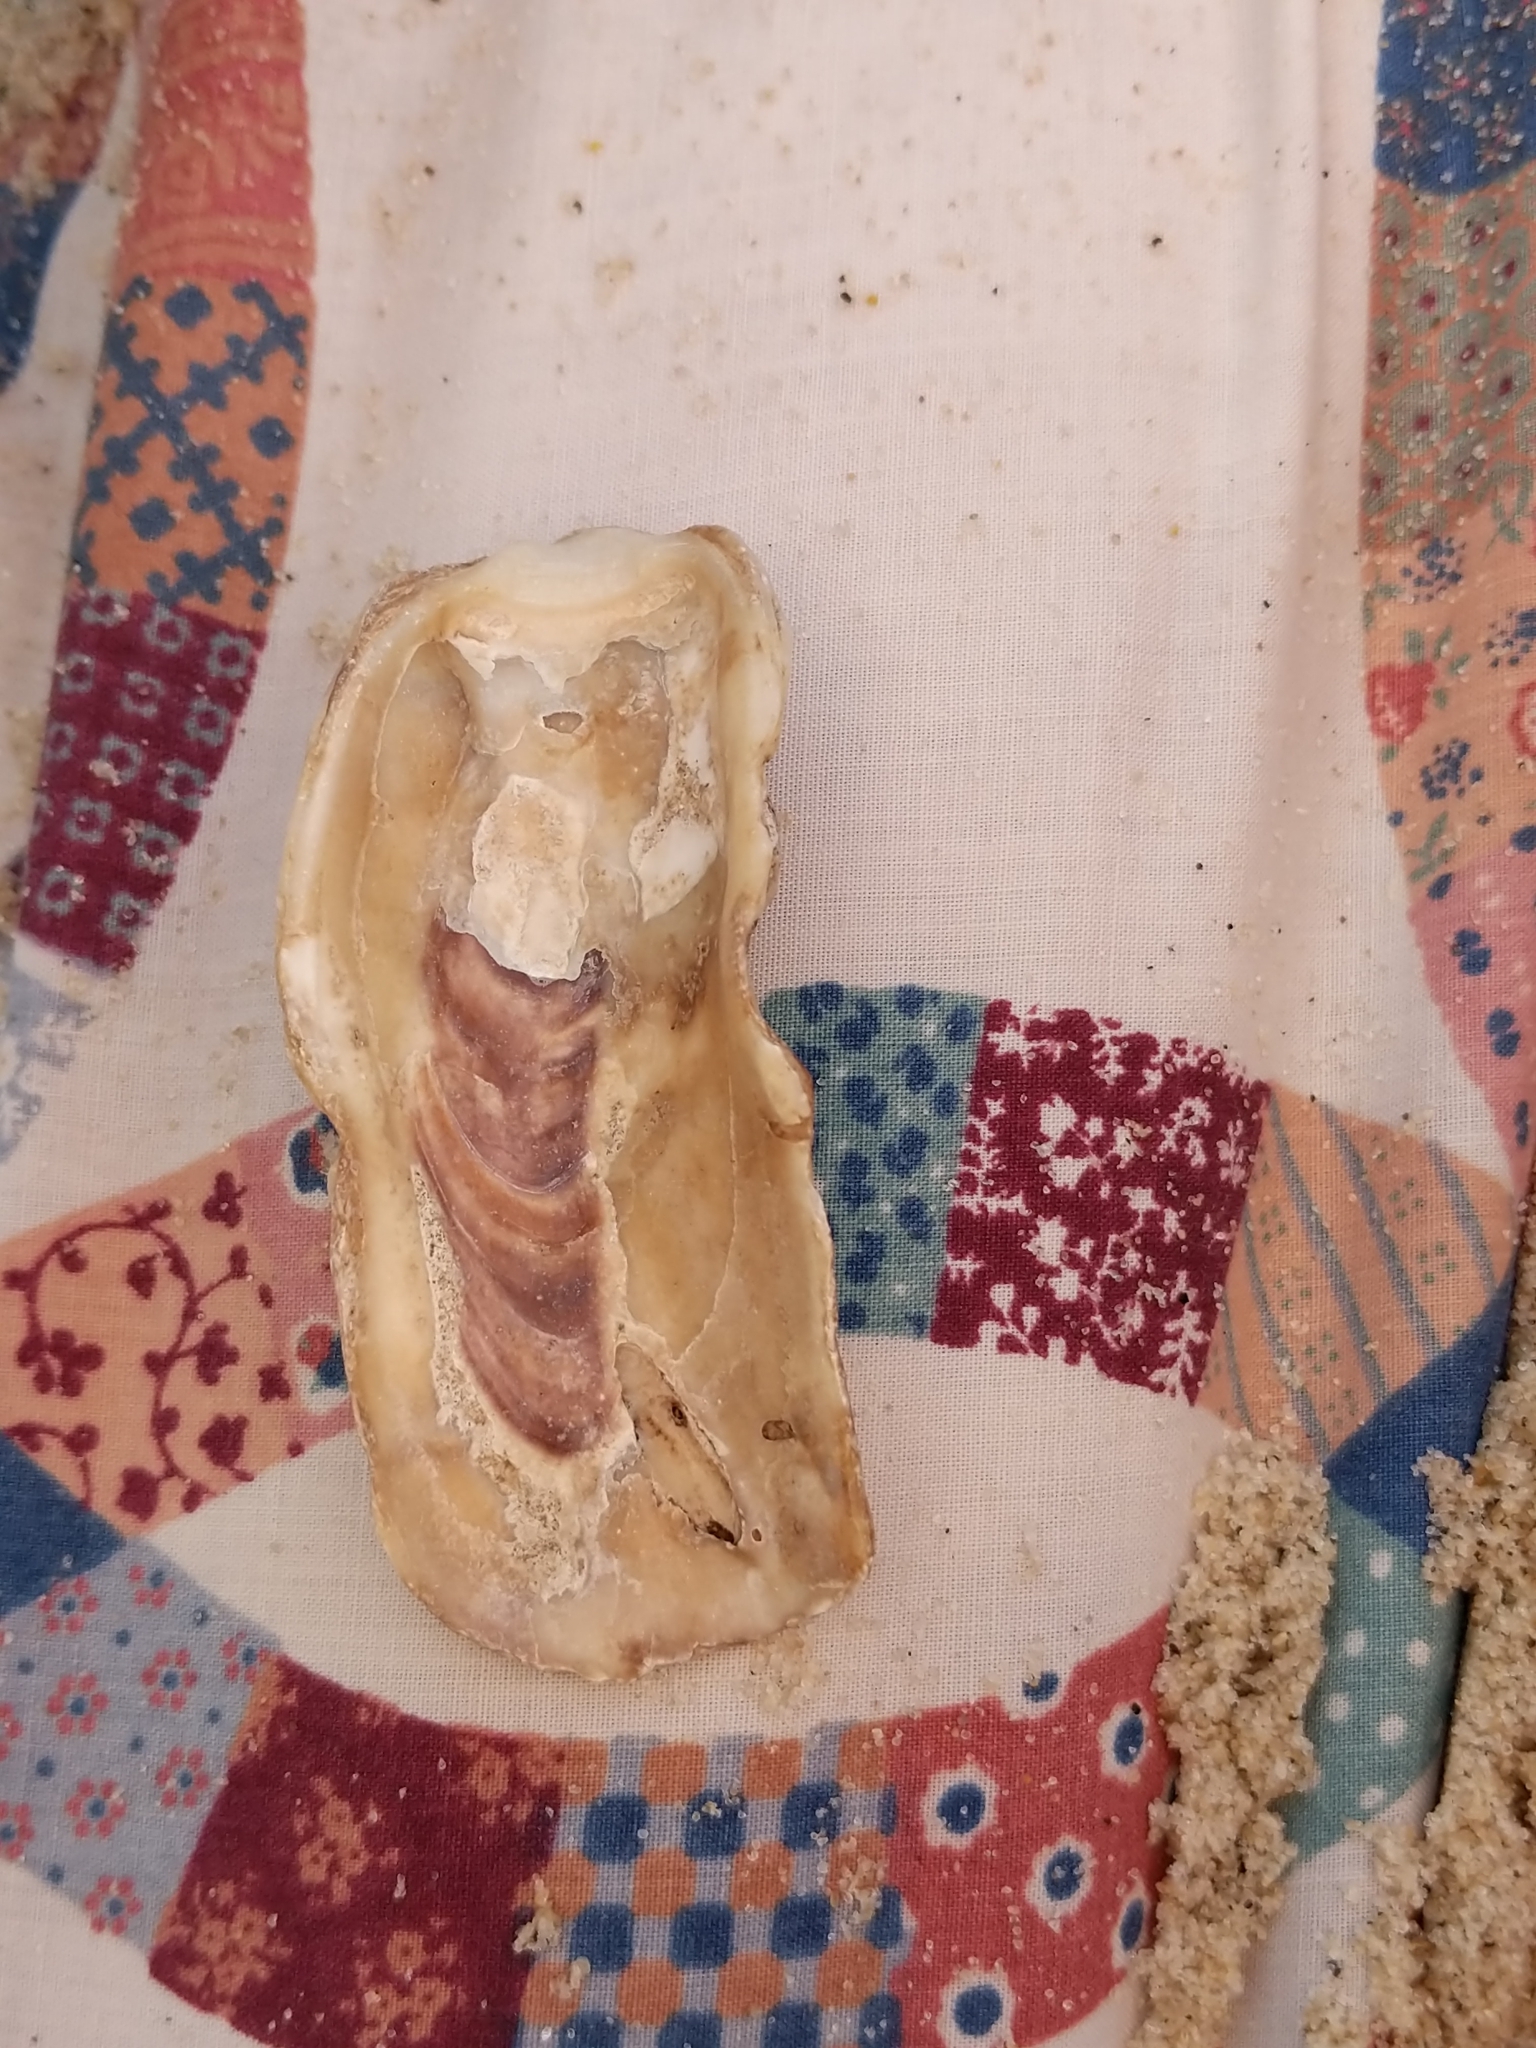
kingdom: Animalia
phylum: Mollusca
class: Bivalvia
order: Ostreida
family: Ostreidae
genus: Crassostrea
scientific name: Crassostrea virginica
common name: American oyster
